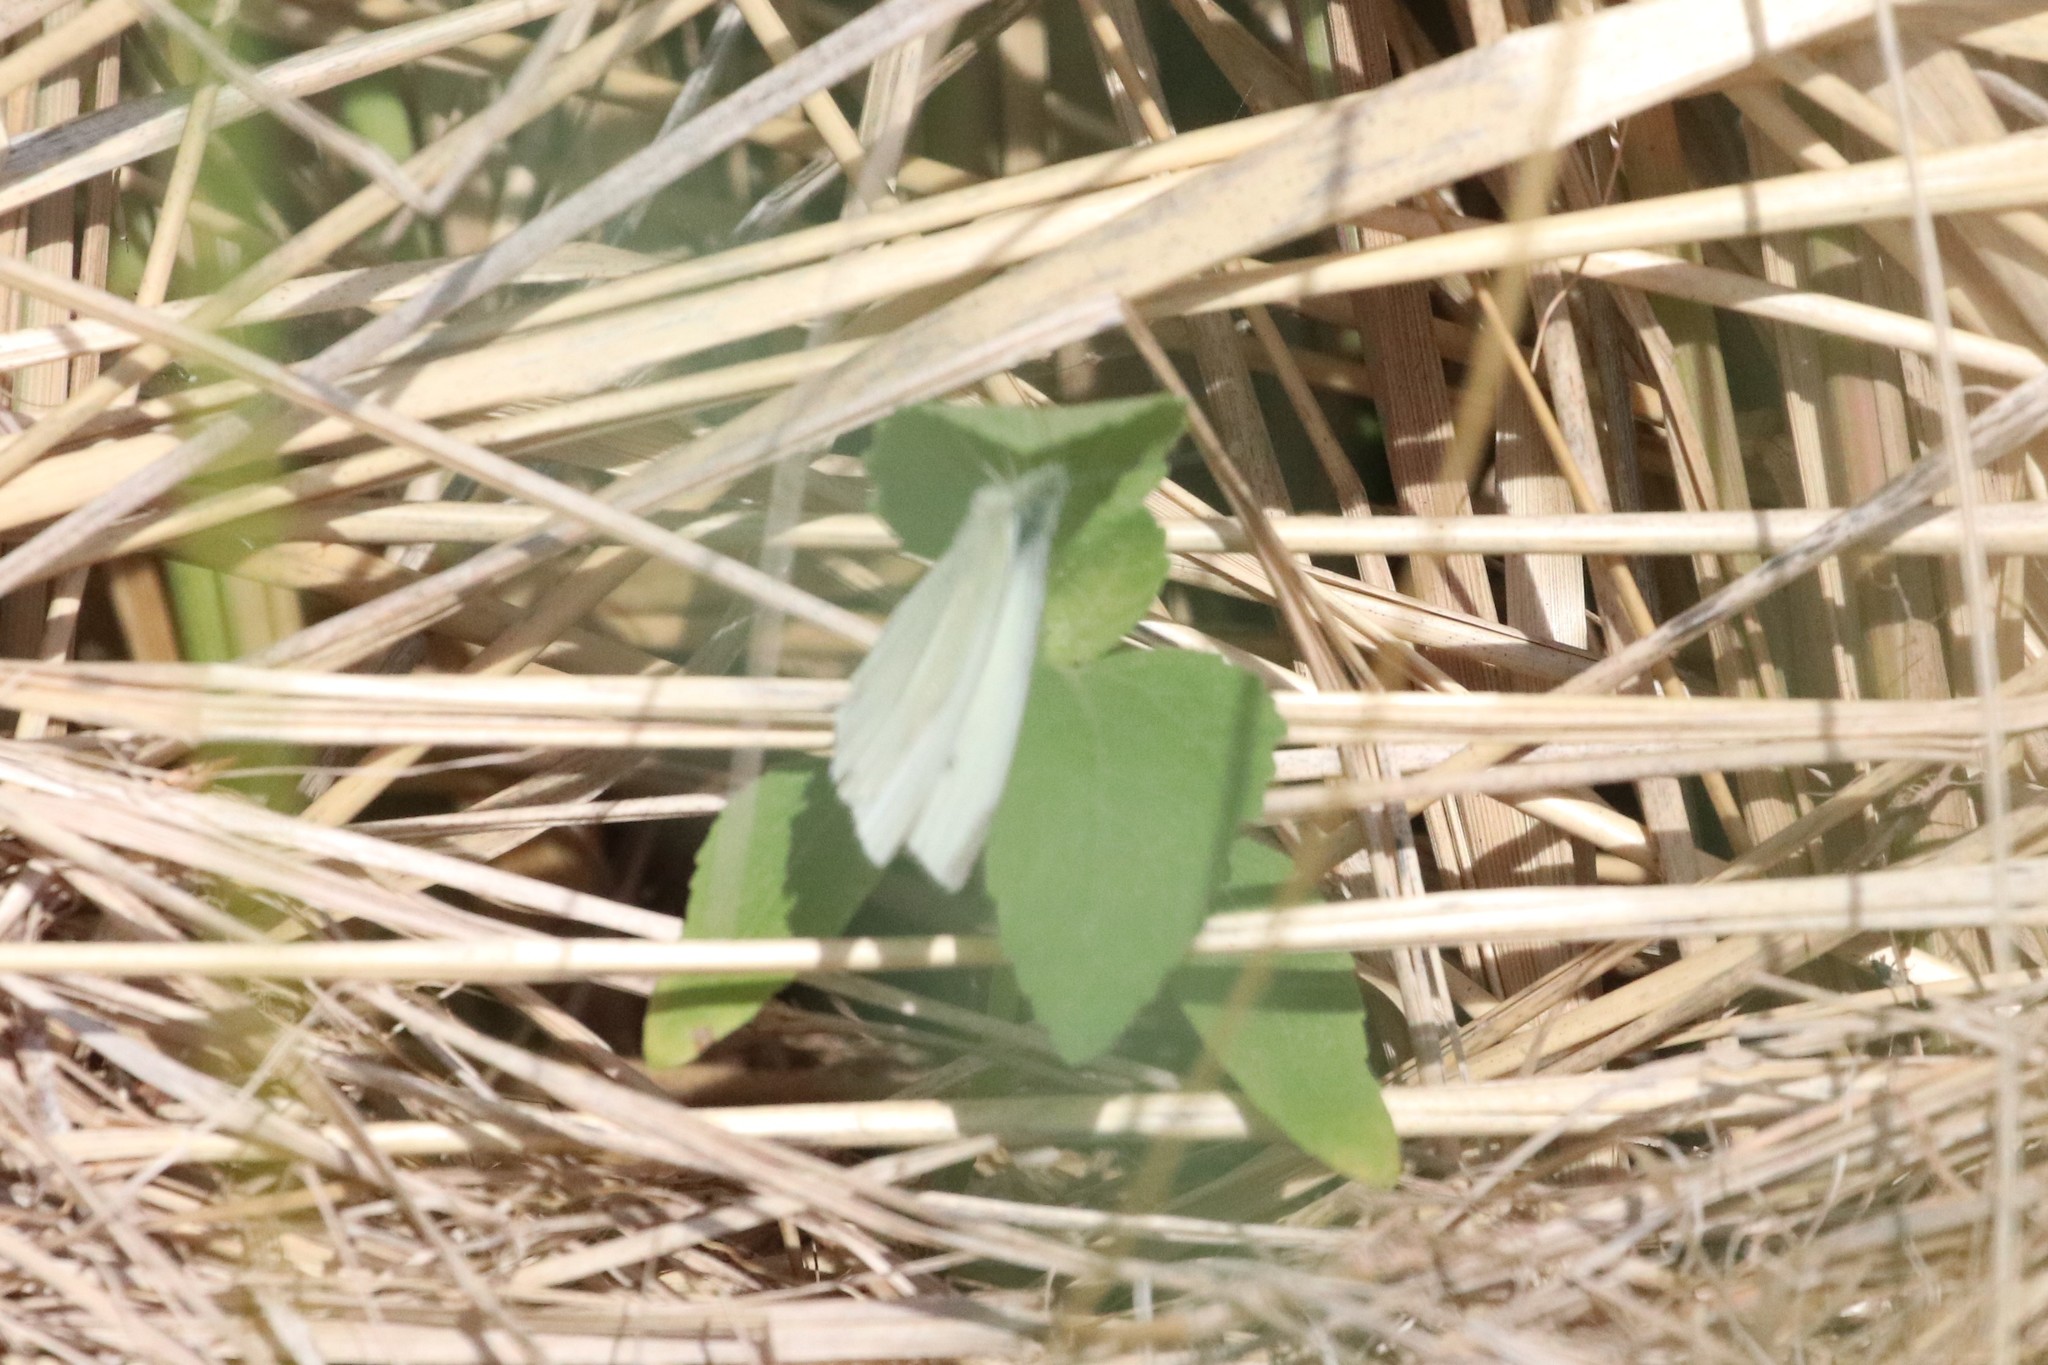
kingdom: Animalia
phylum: Arthropoda
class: Insecta
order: Lepidoptera
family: Pieridae
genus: Pieris
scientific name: Pieris rapae
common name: Small white
